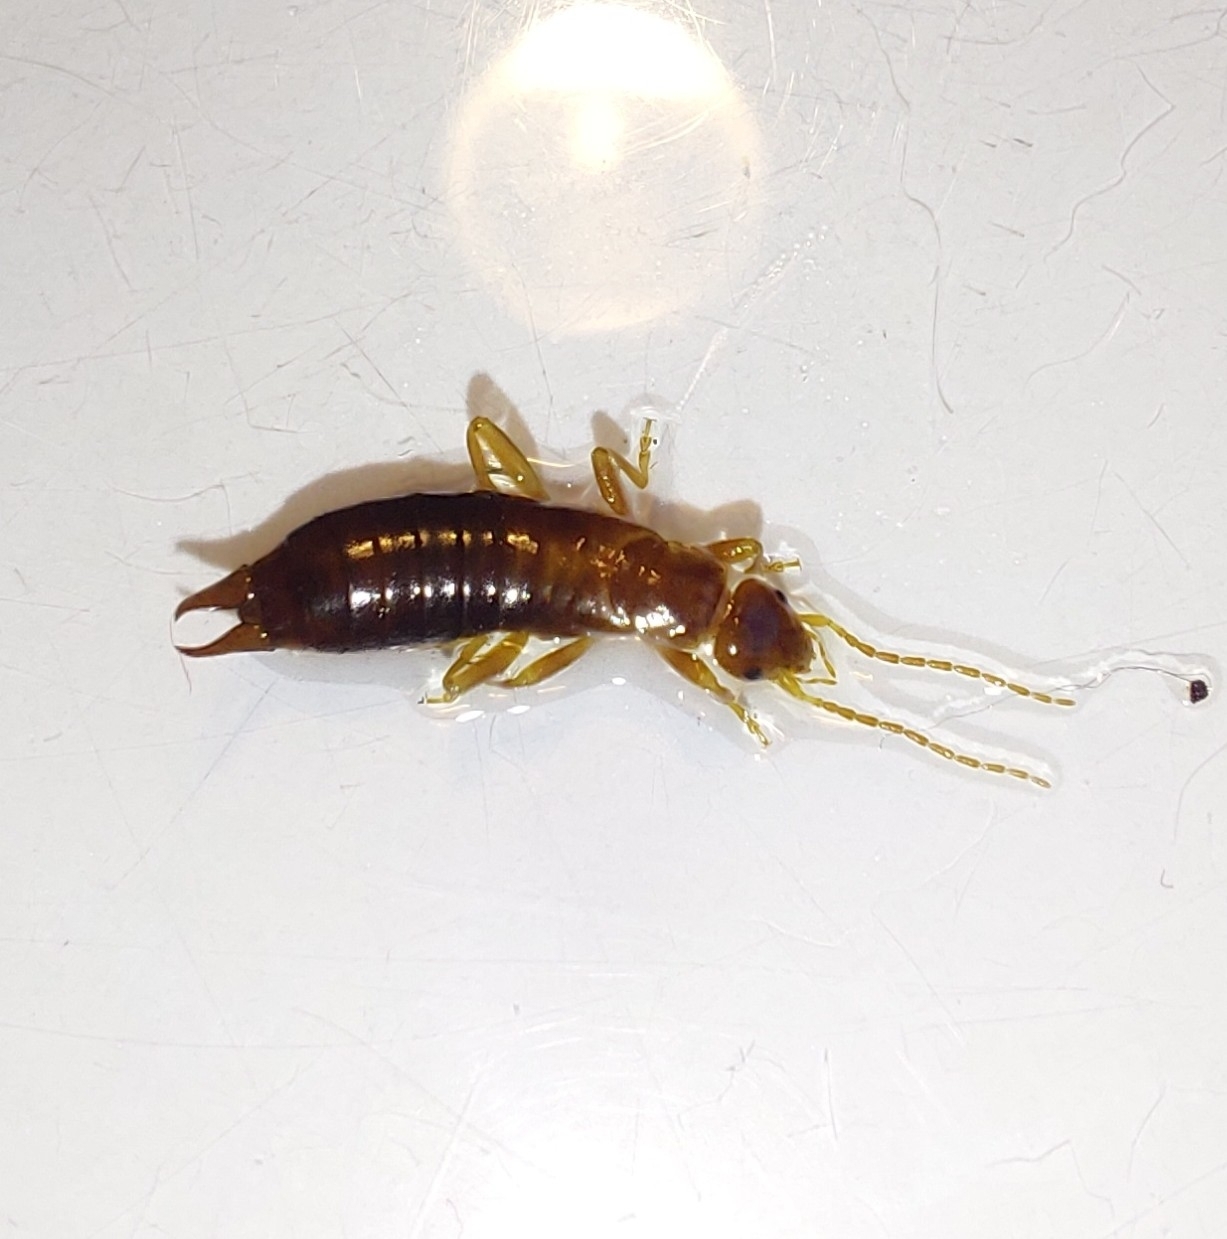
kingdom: Animalia
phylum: Arthropoda
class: Insecta
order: Dermaptera
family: Forficulidae
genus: Chelidurella
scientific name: Chelidurella acanthopygia
